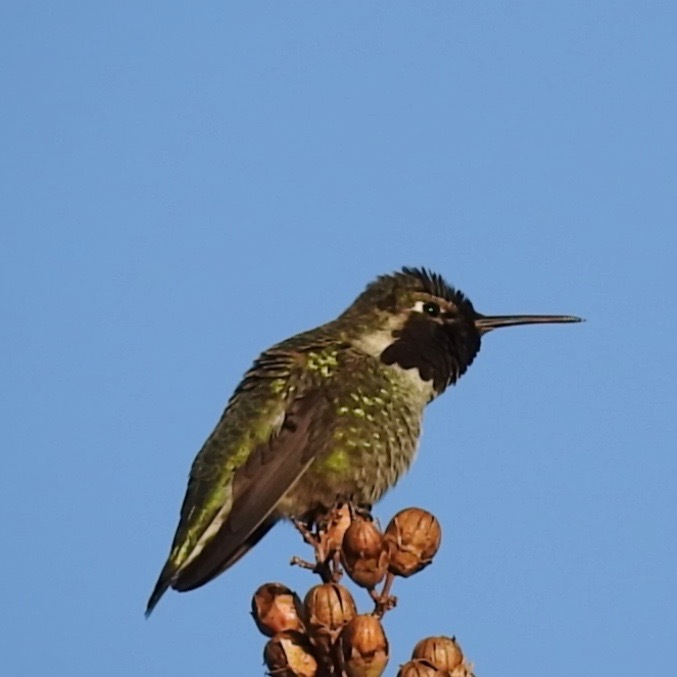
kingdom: Animalia
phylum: Chordata
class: Aves
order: Apodiformes
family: Trochilidae
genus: Calypte
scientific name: Calypte anna
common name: Anna's hummingbird
